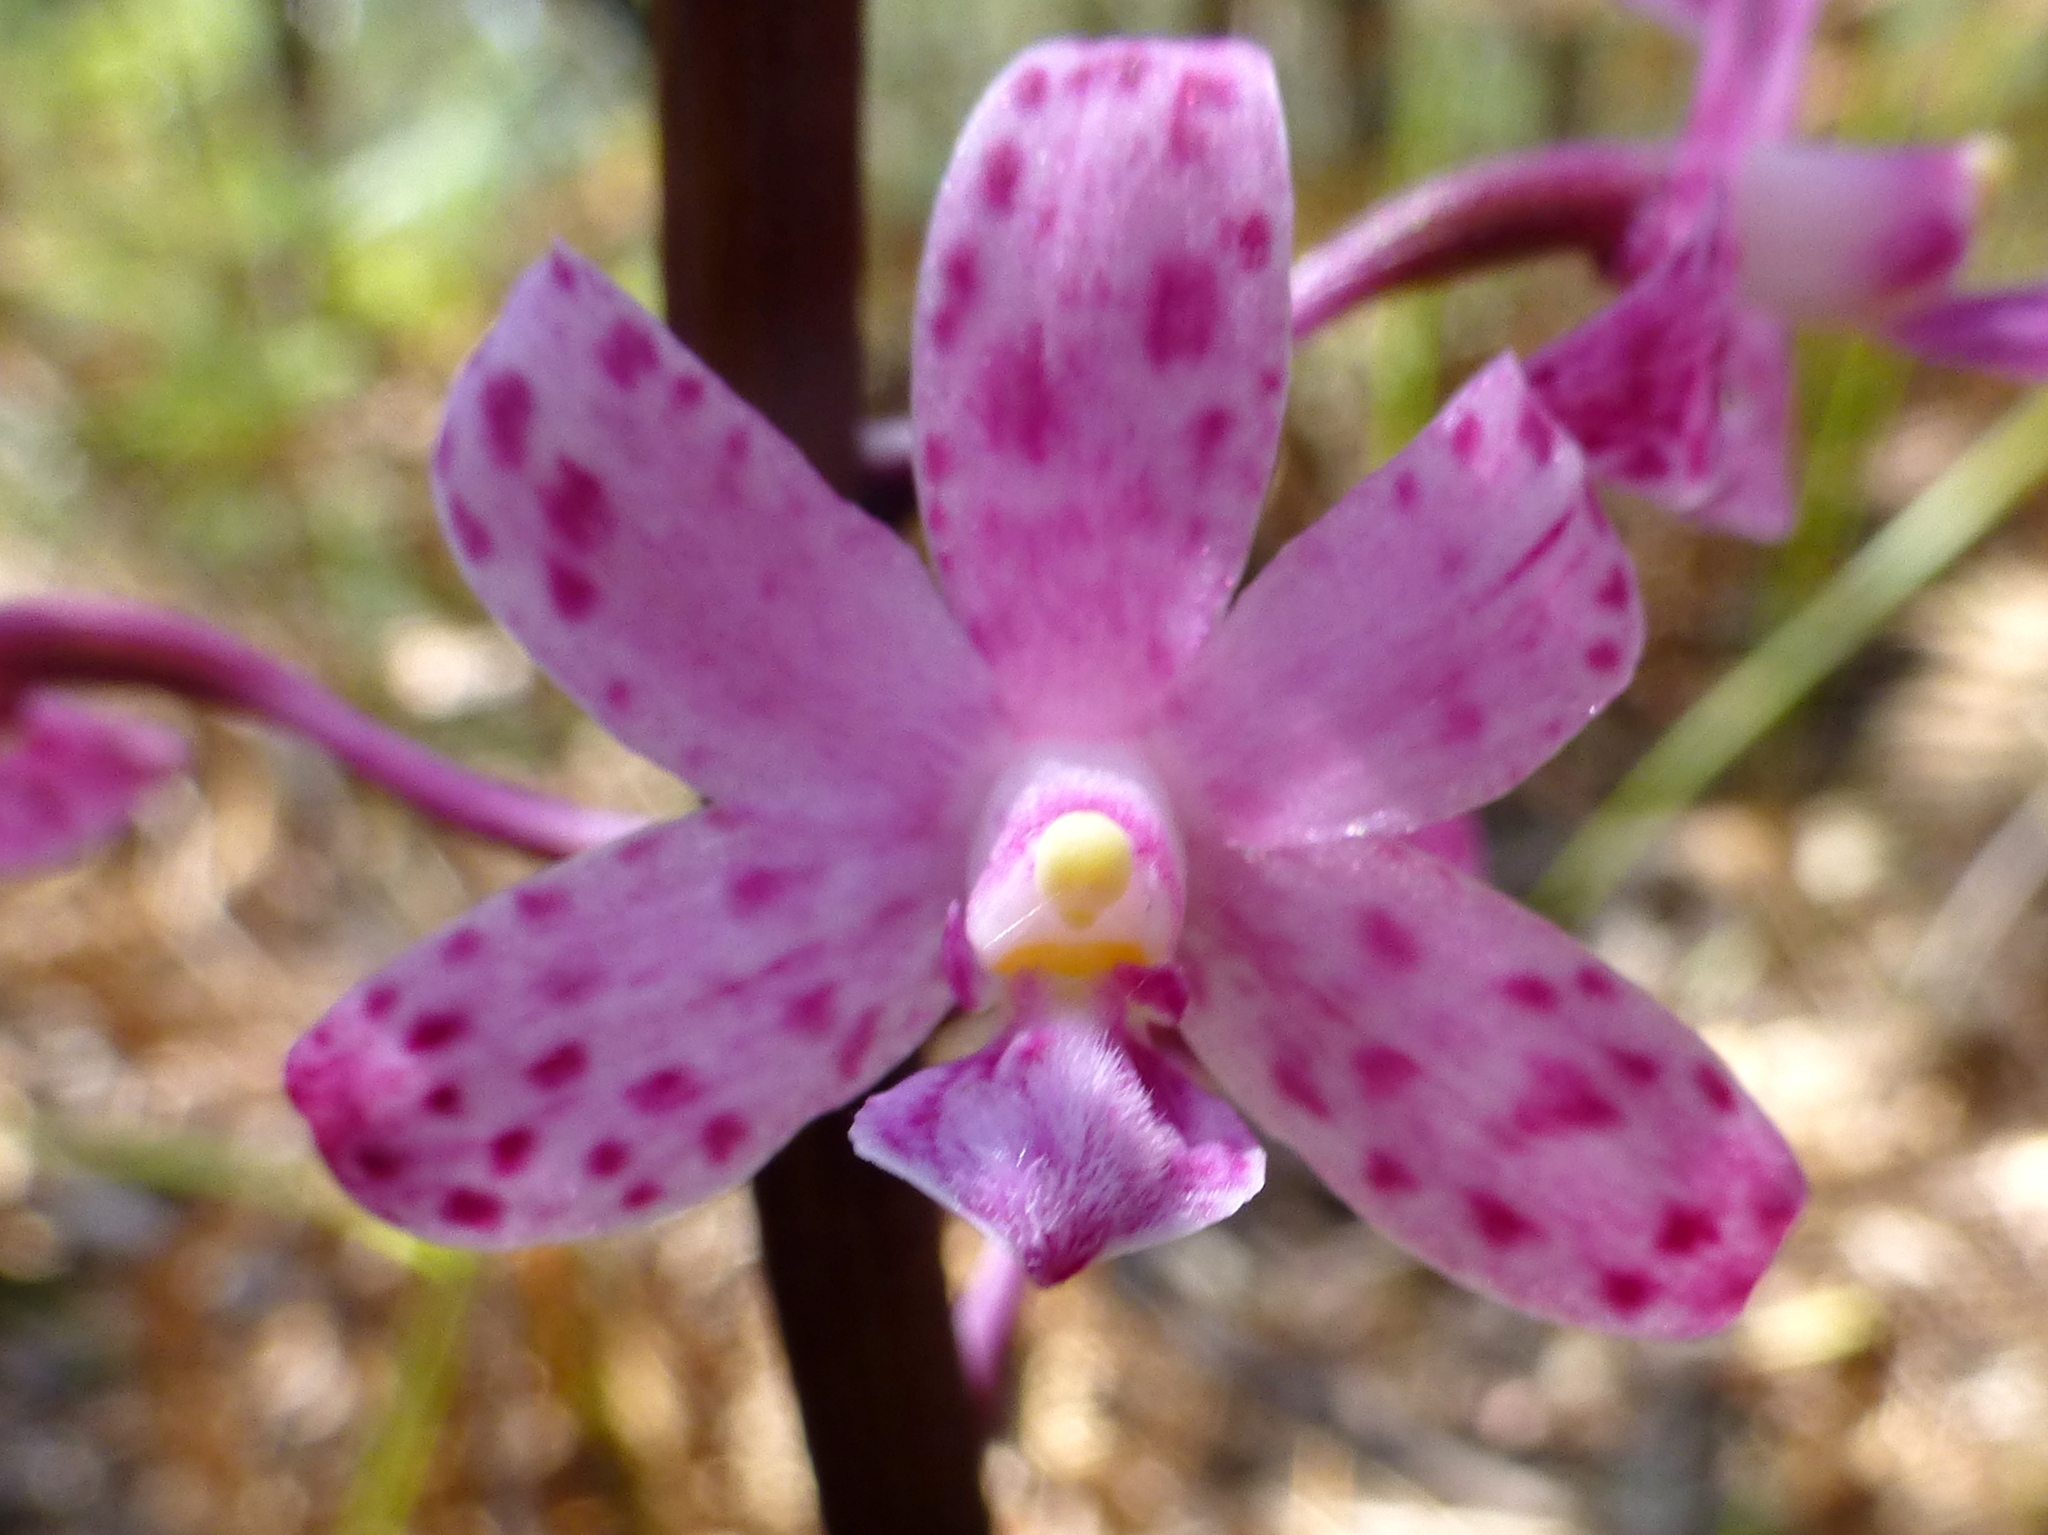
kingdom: Plantae
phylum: Tracheophyta
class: Liliopsida
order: Asparagales
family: Orchidaceae
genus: Dipodium
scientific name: Dipodium roseum
